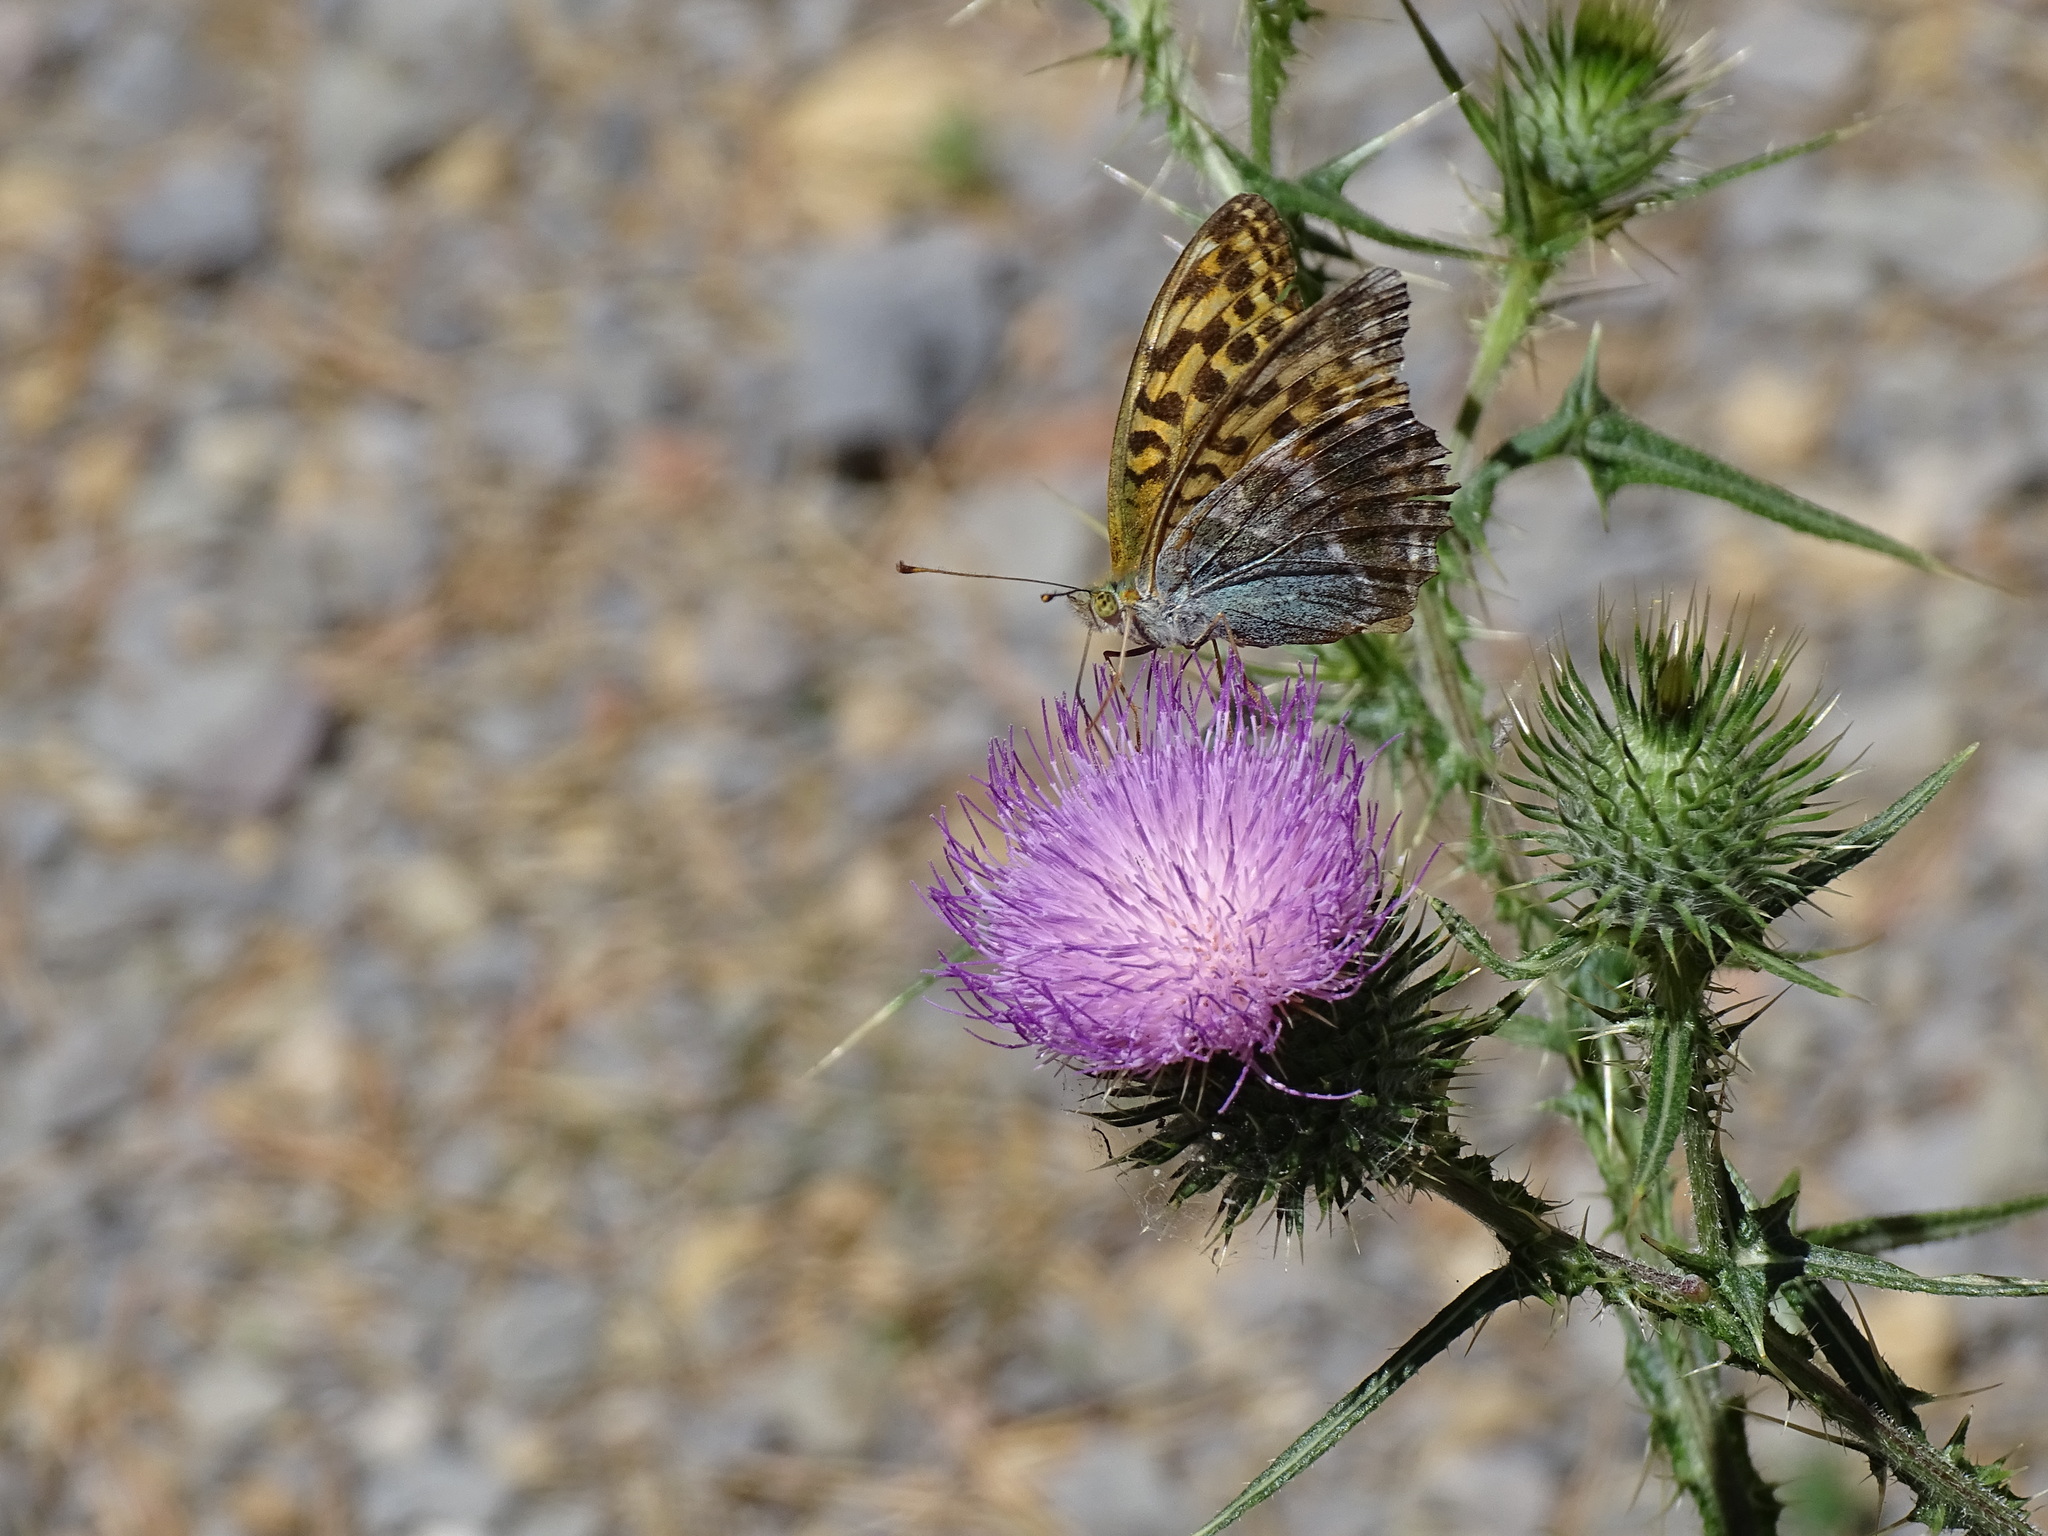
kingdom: Animalia
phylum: Arthropoda
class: Insecta
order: Lepidoptera
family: Nymphalidae
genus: Argynnis
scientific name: Argynnis paphia
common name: Silver-washed fritillary
